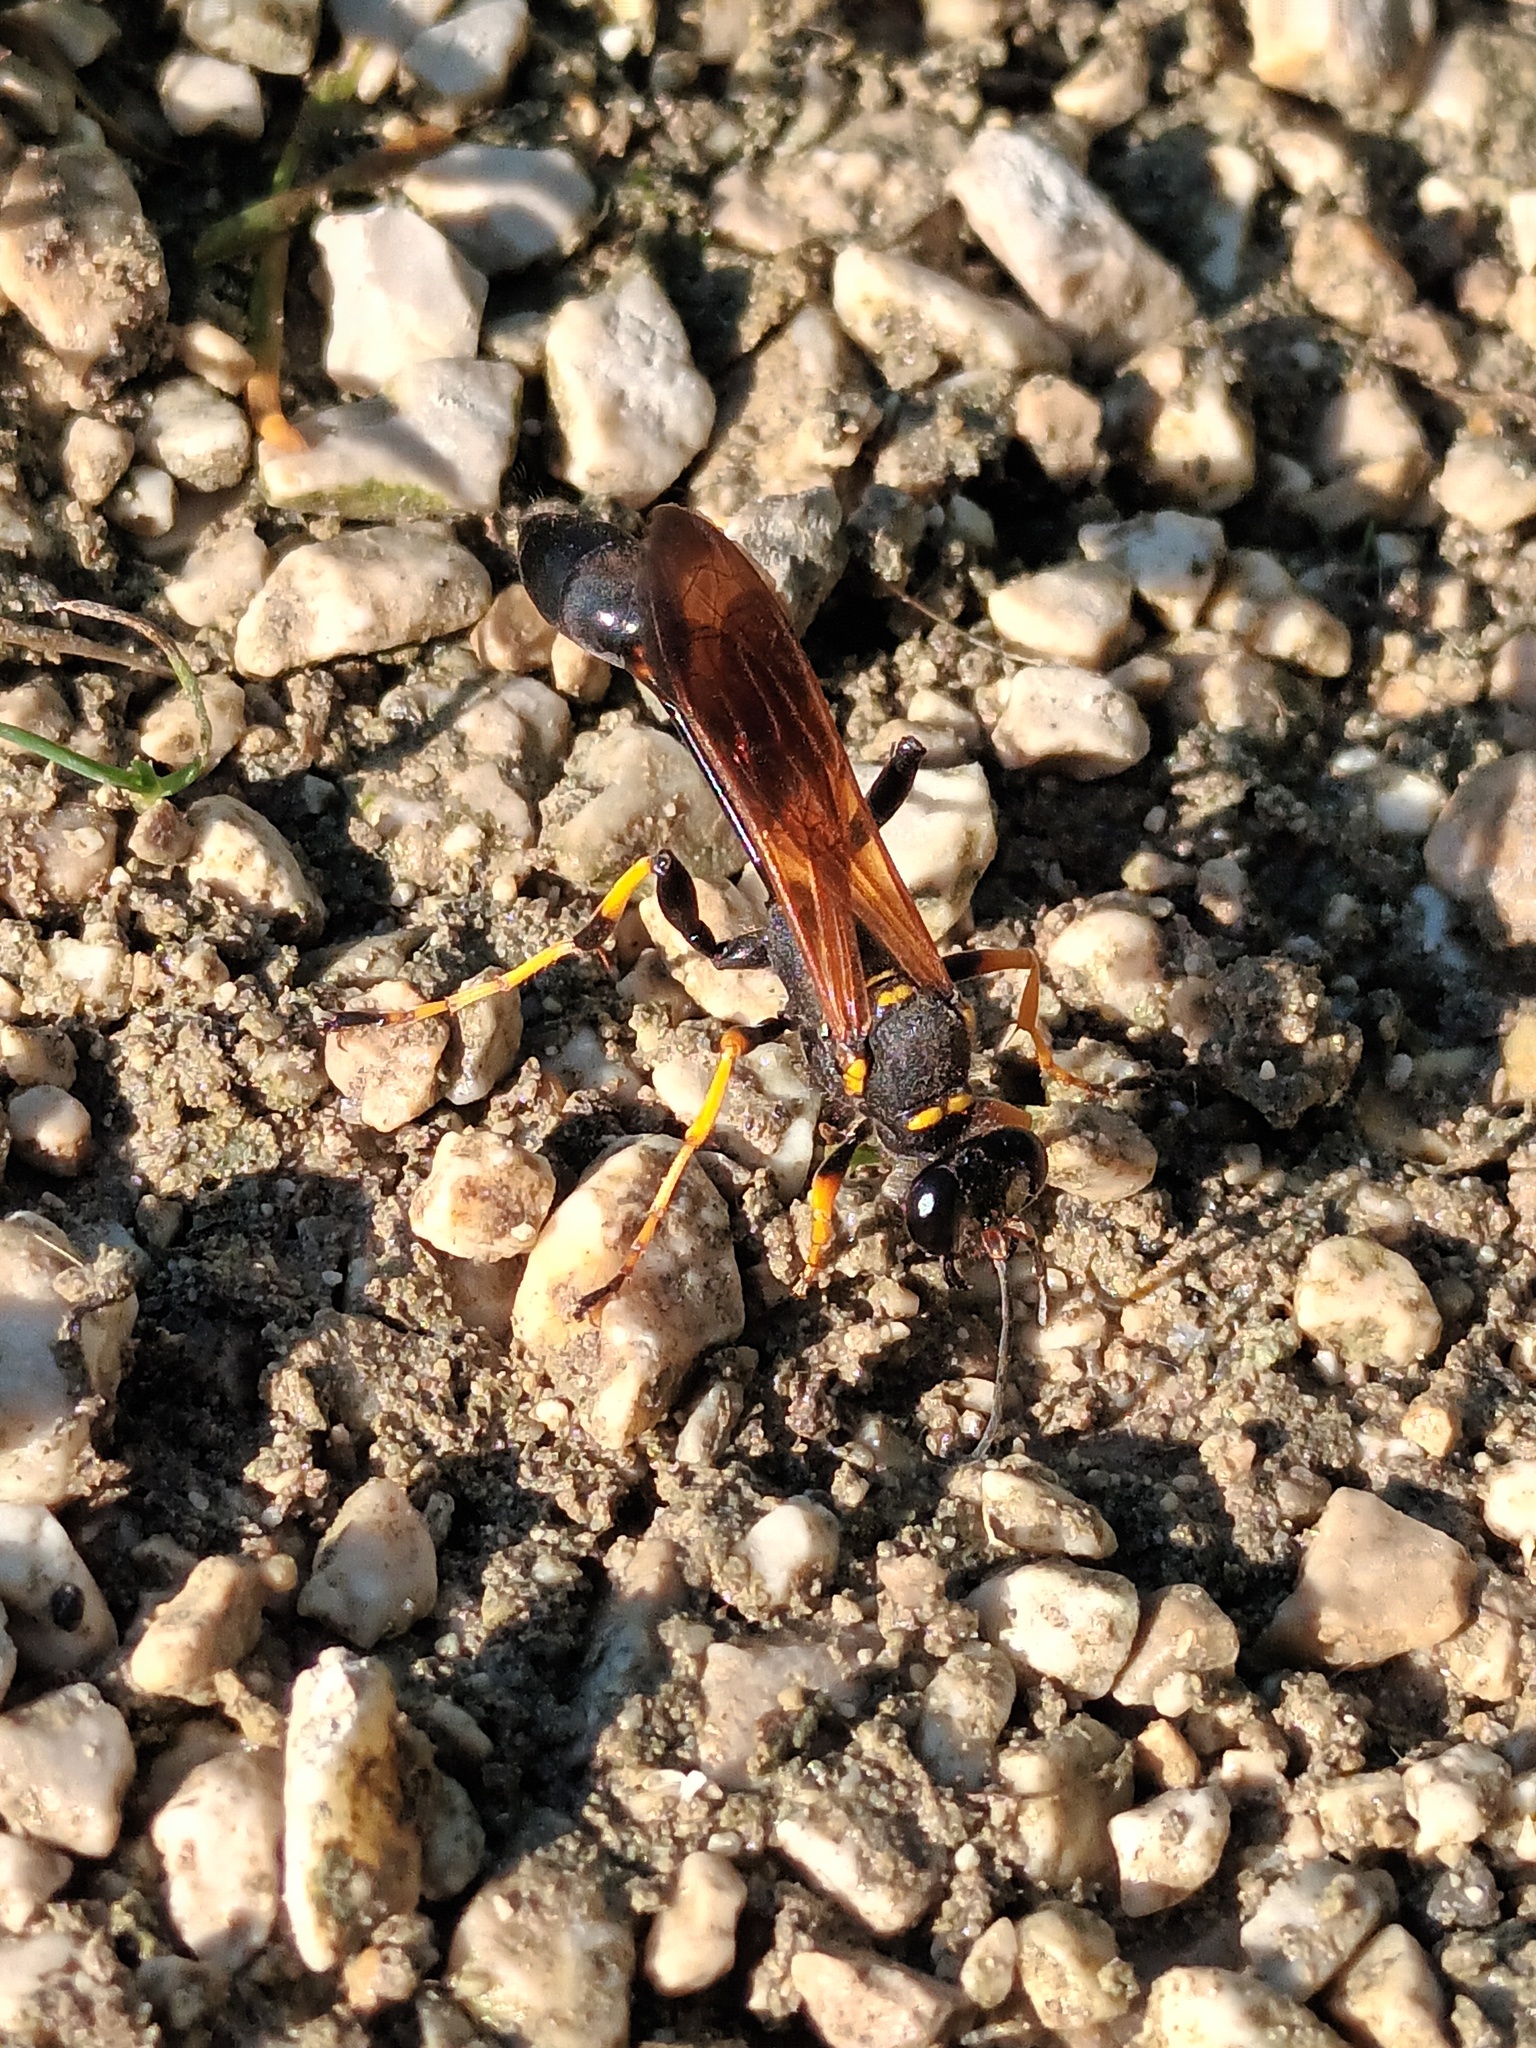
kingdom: Animalia
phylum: Arthropoda
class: Insecta
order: Hymenoptera
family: Sphecidae
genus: Sceliphron
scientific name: Sceliphron caementarium
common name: Mud dauber
